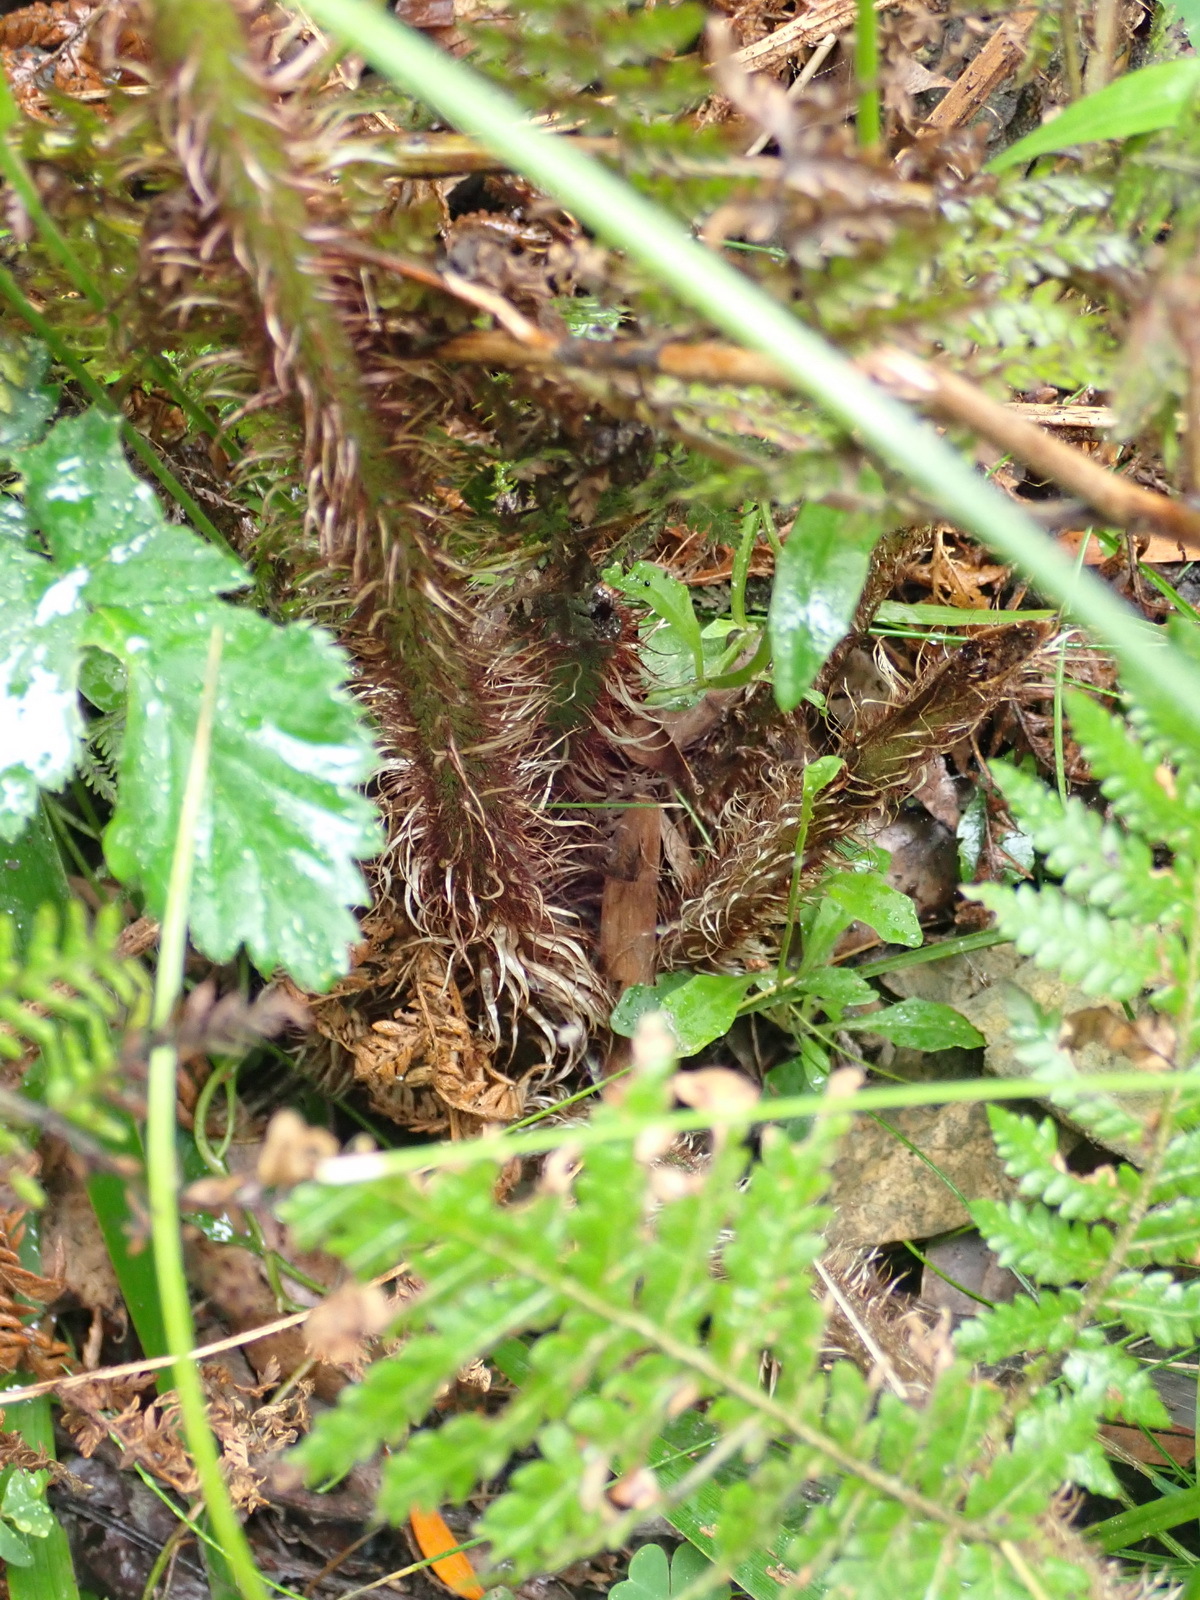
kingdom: Plantae
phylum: Tracheophyta
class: Polypodiopsida
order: Cyatheales
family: Cyatheaceae
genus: Sphaeropteris
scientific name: Sphaeropteris cooperi
